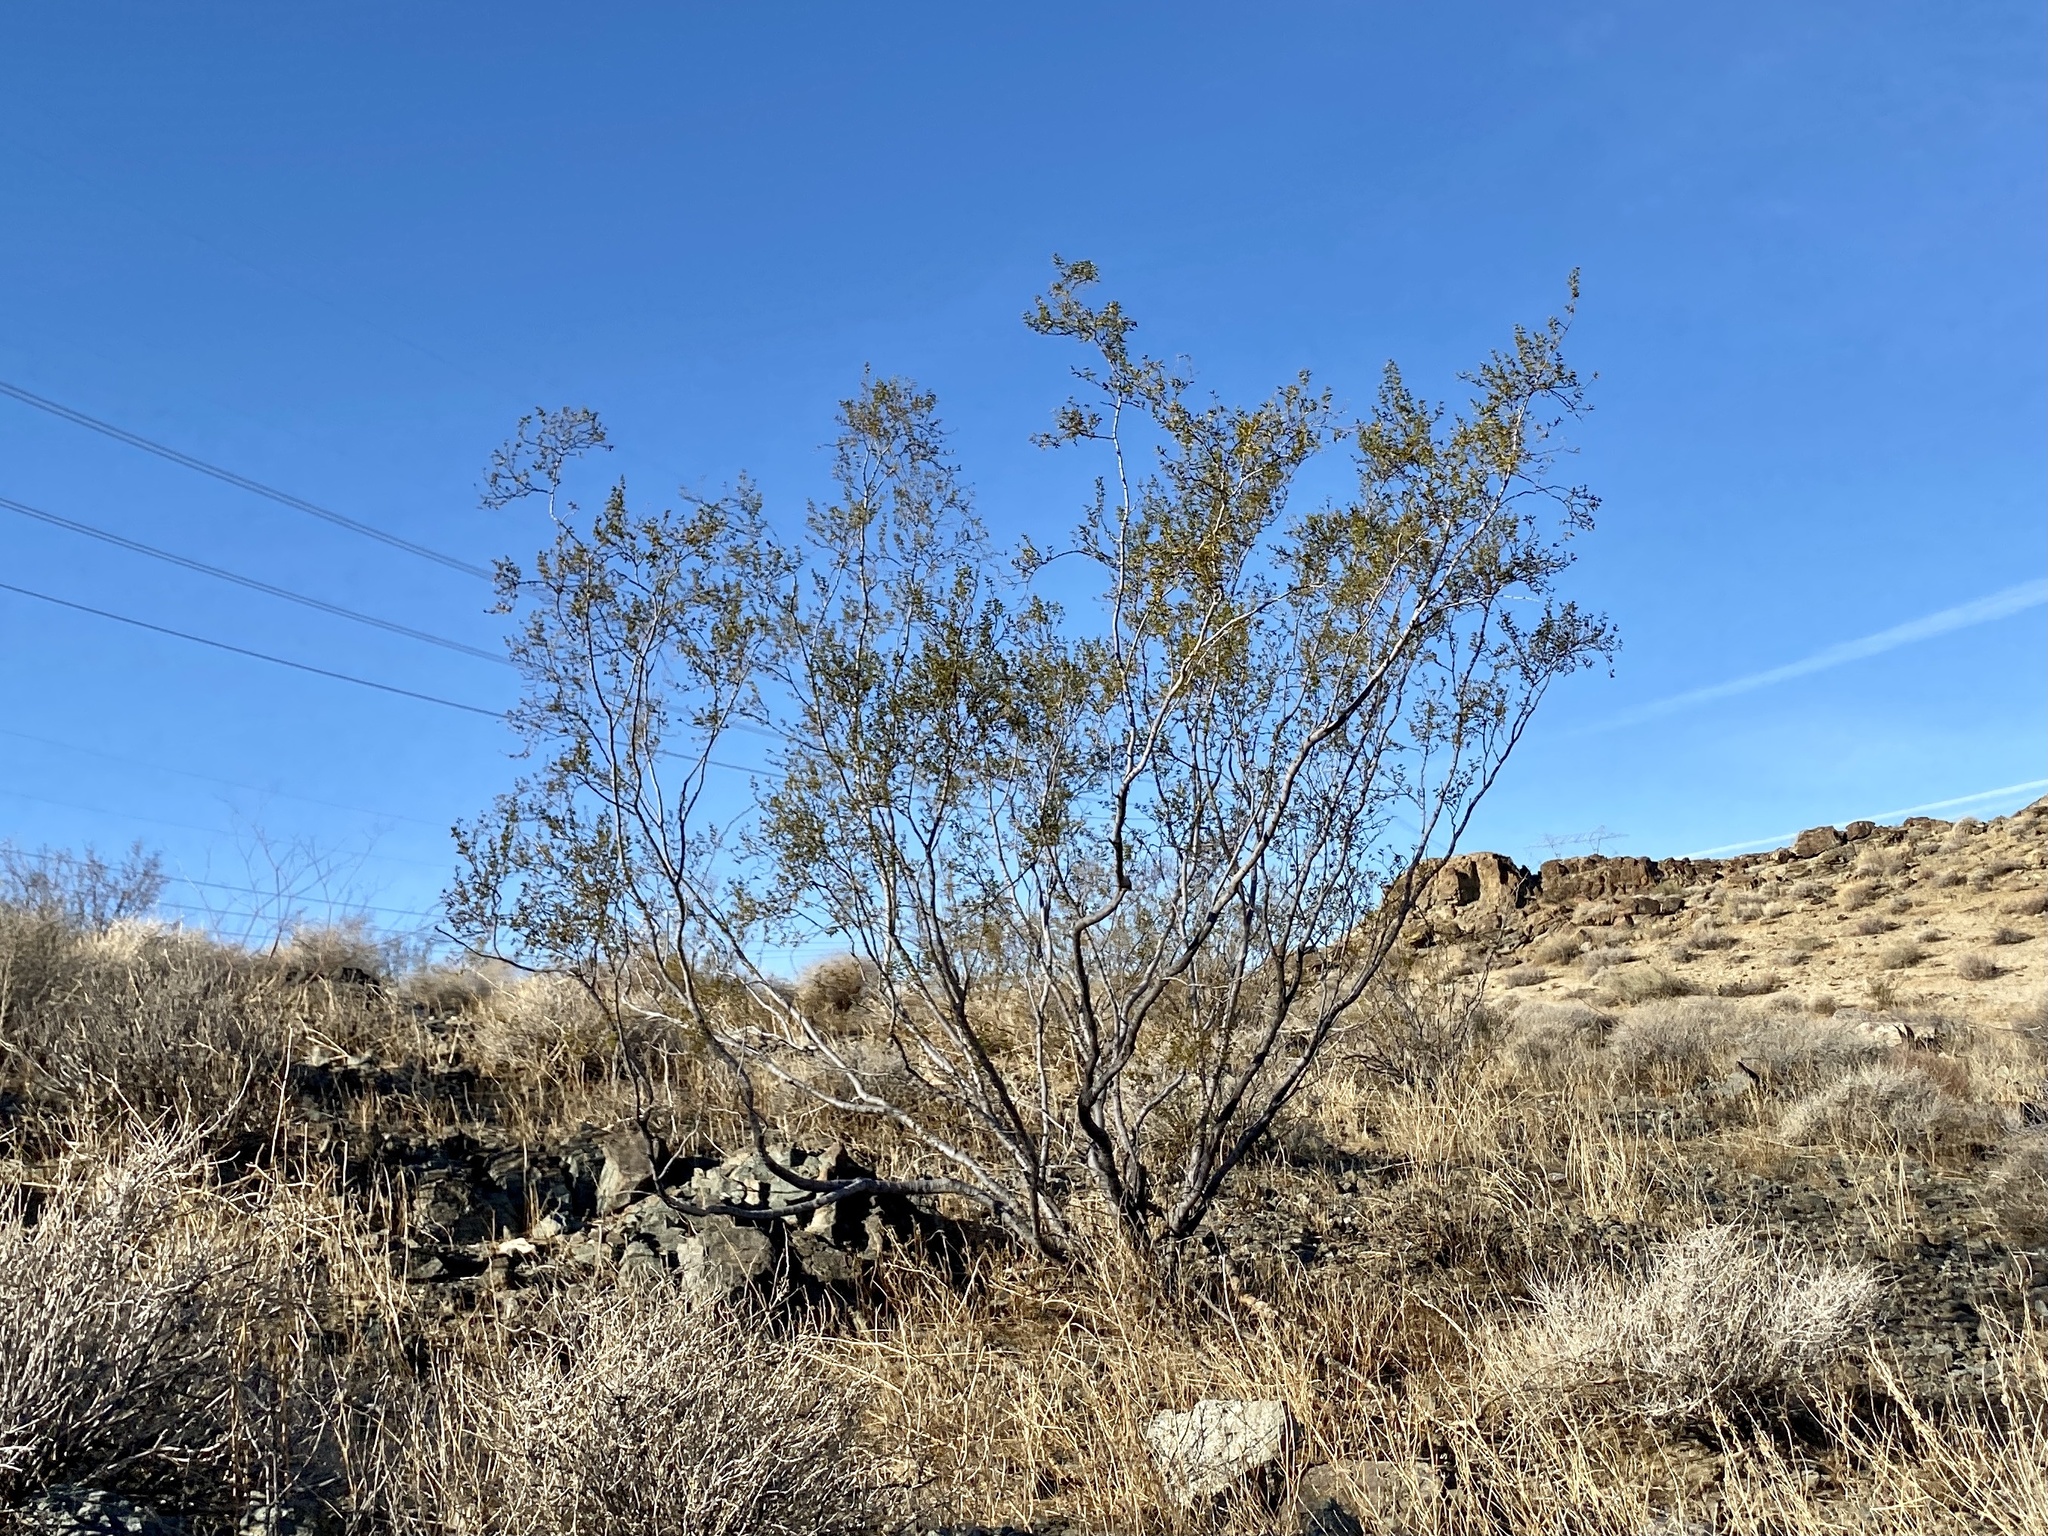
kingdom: Plantae
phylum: Tracheophyta
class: Magnoliopsida
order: Zygophyllales
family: Zygophyllaceae
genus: Larrea
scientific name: Larrea tridentata
